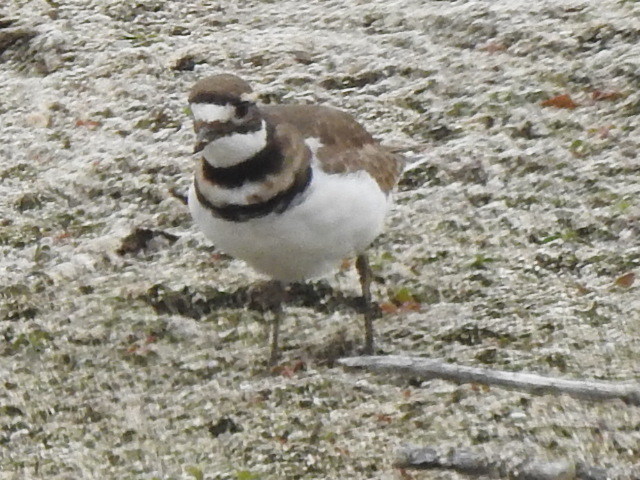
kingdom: Animalia
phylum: Chordata
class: Aves
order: Charadriiformes
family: Charadriidae
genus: Charadrius
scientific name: Charadrius vociferus
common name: Killdeer
